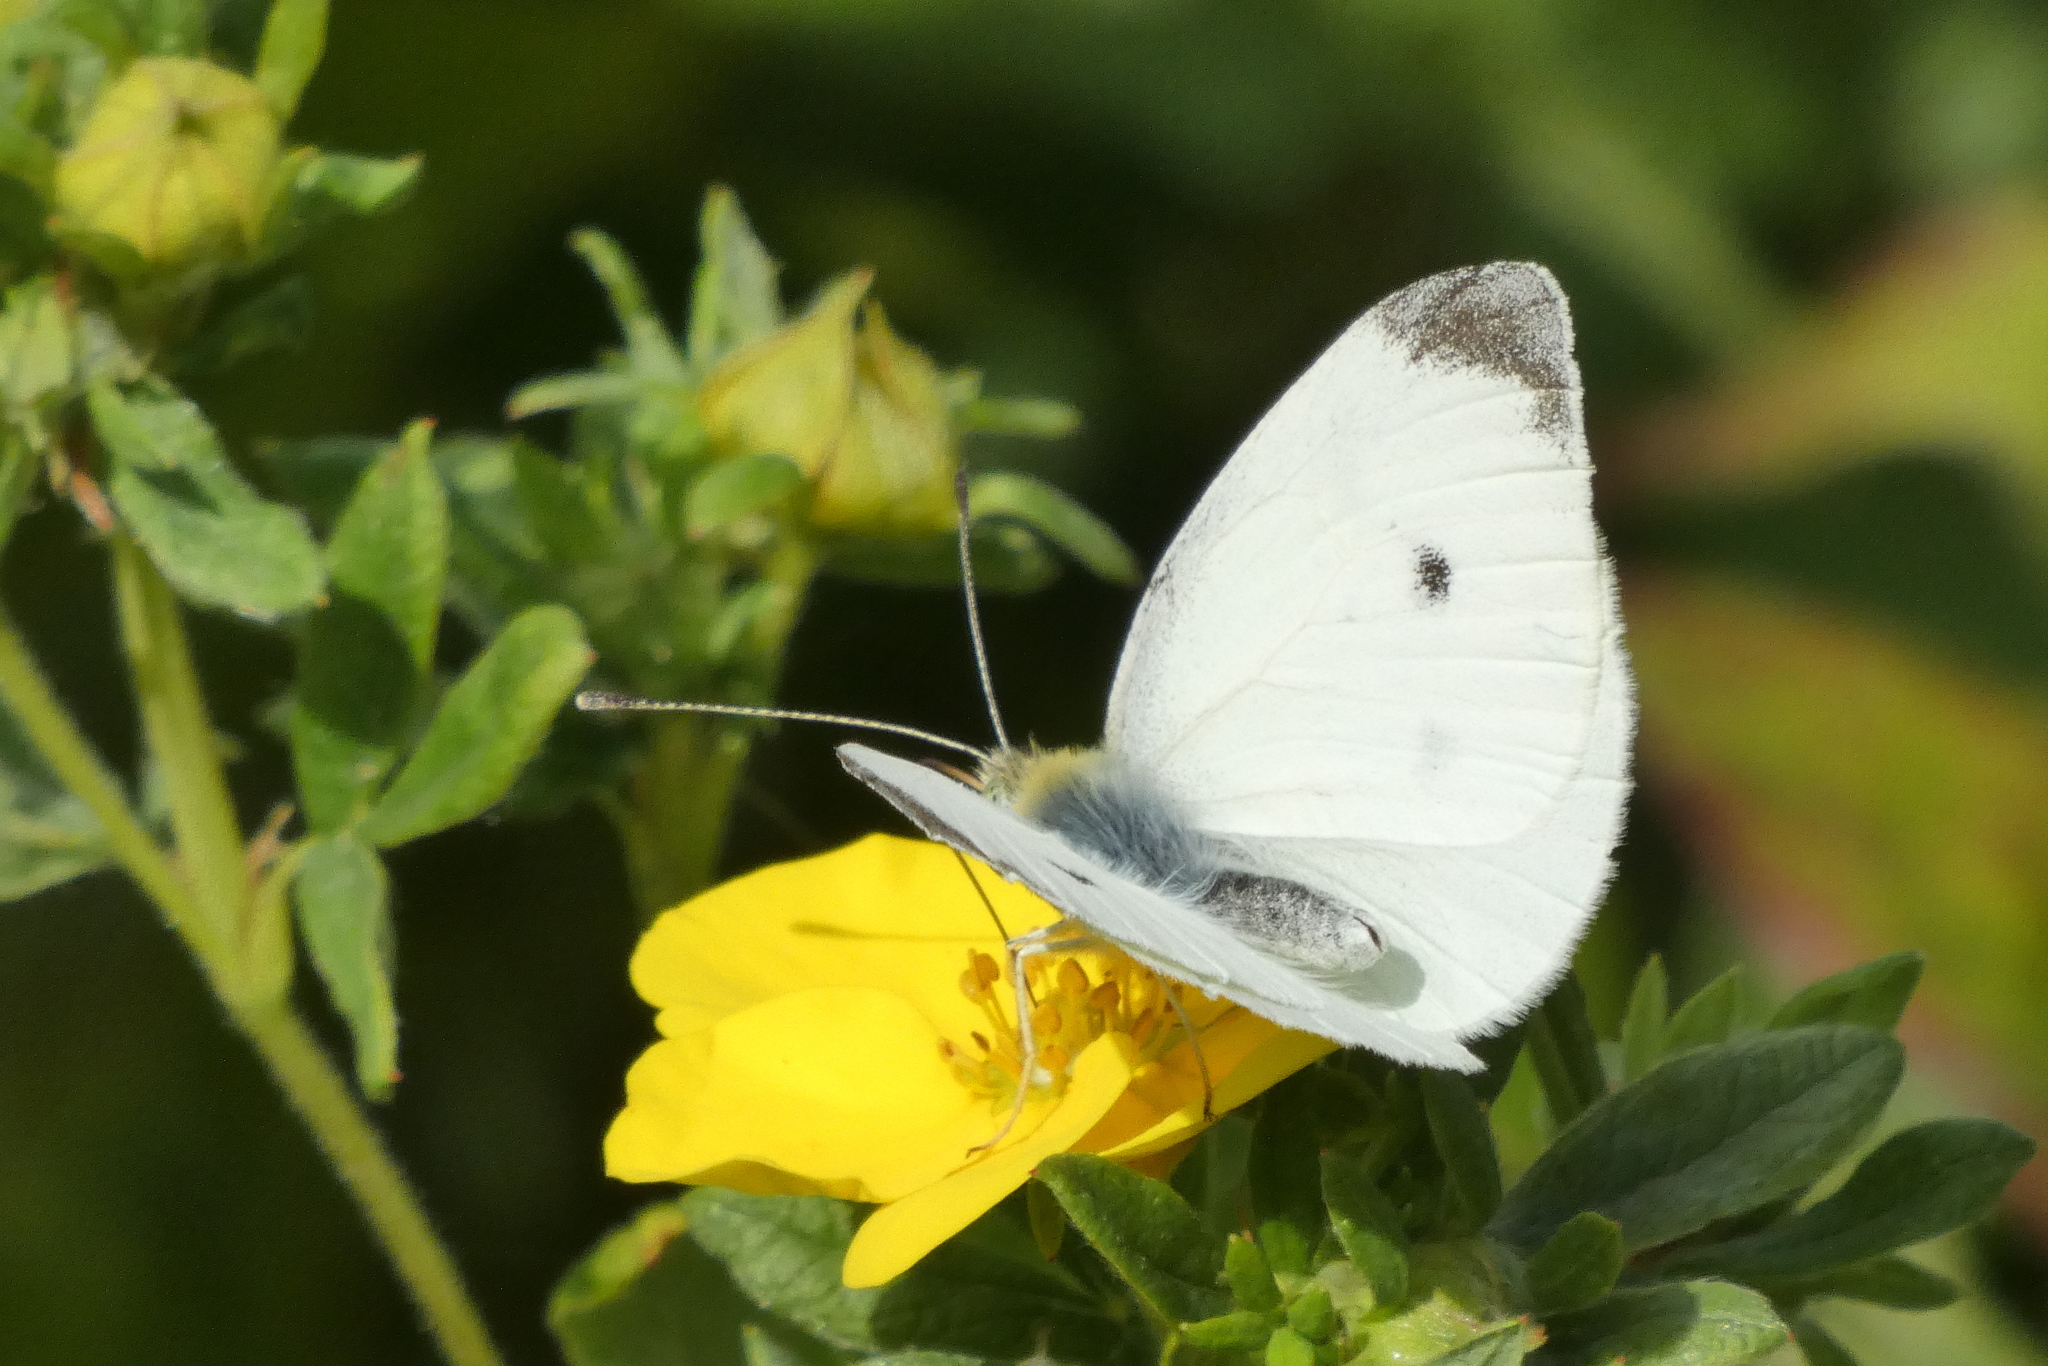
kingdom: Animalia
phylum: Arthropoda
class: Insecta
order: Lepidoptera
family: Pieridae
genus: Pieris
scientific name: Pieris rapae
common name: Small white
